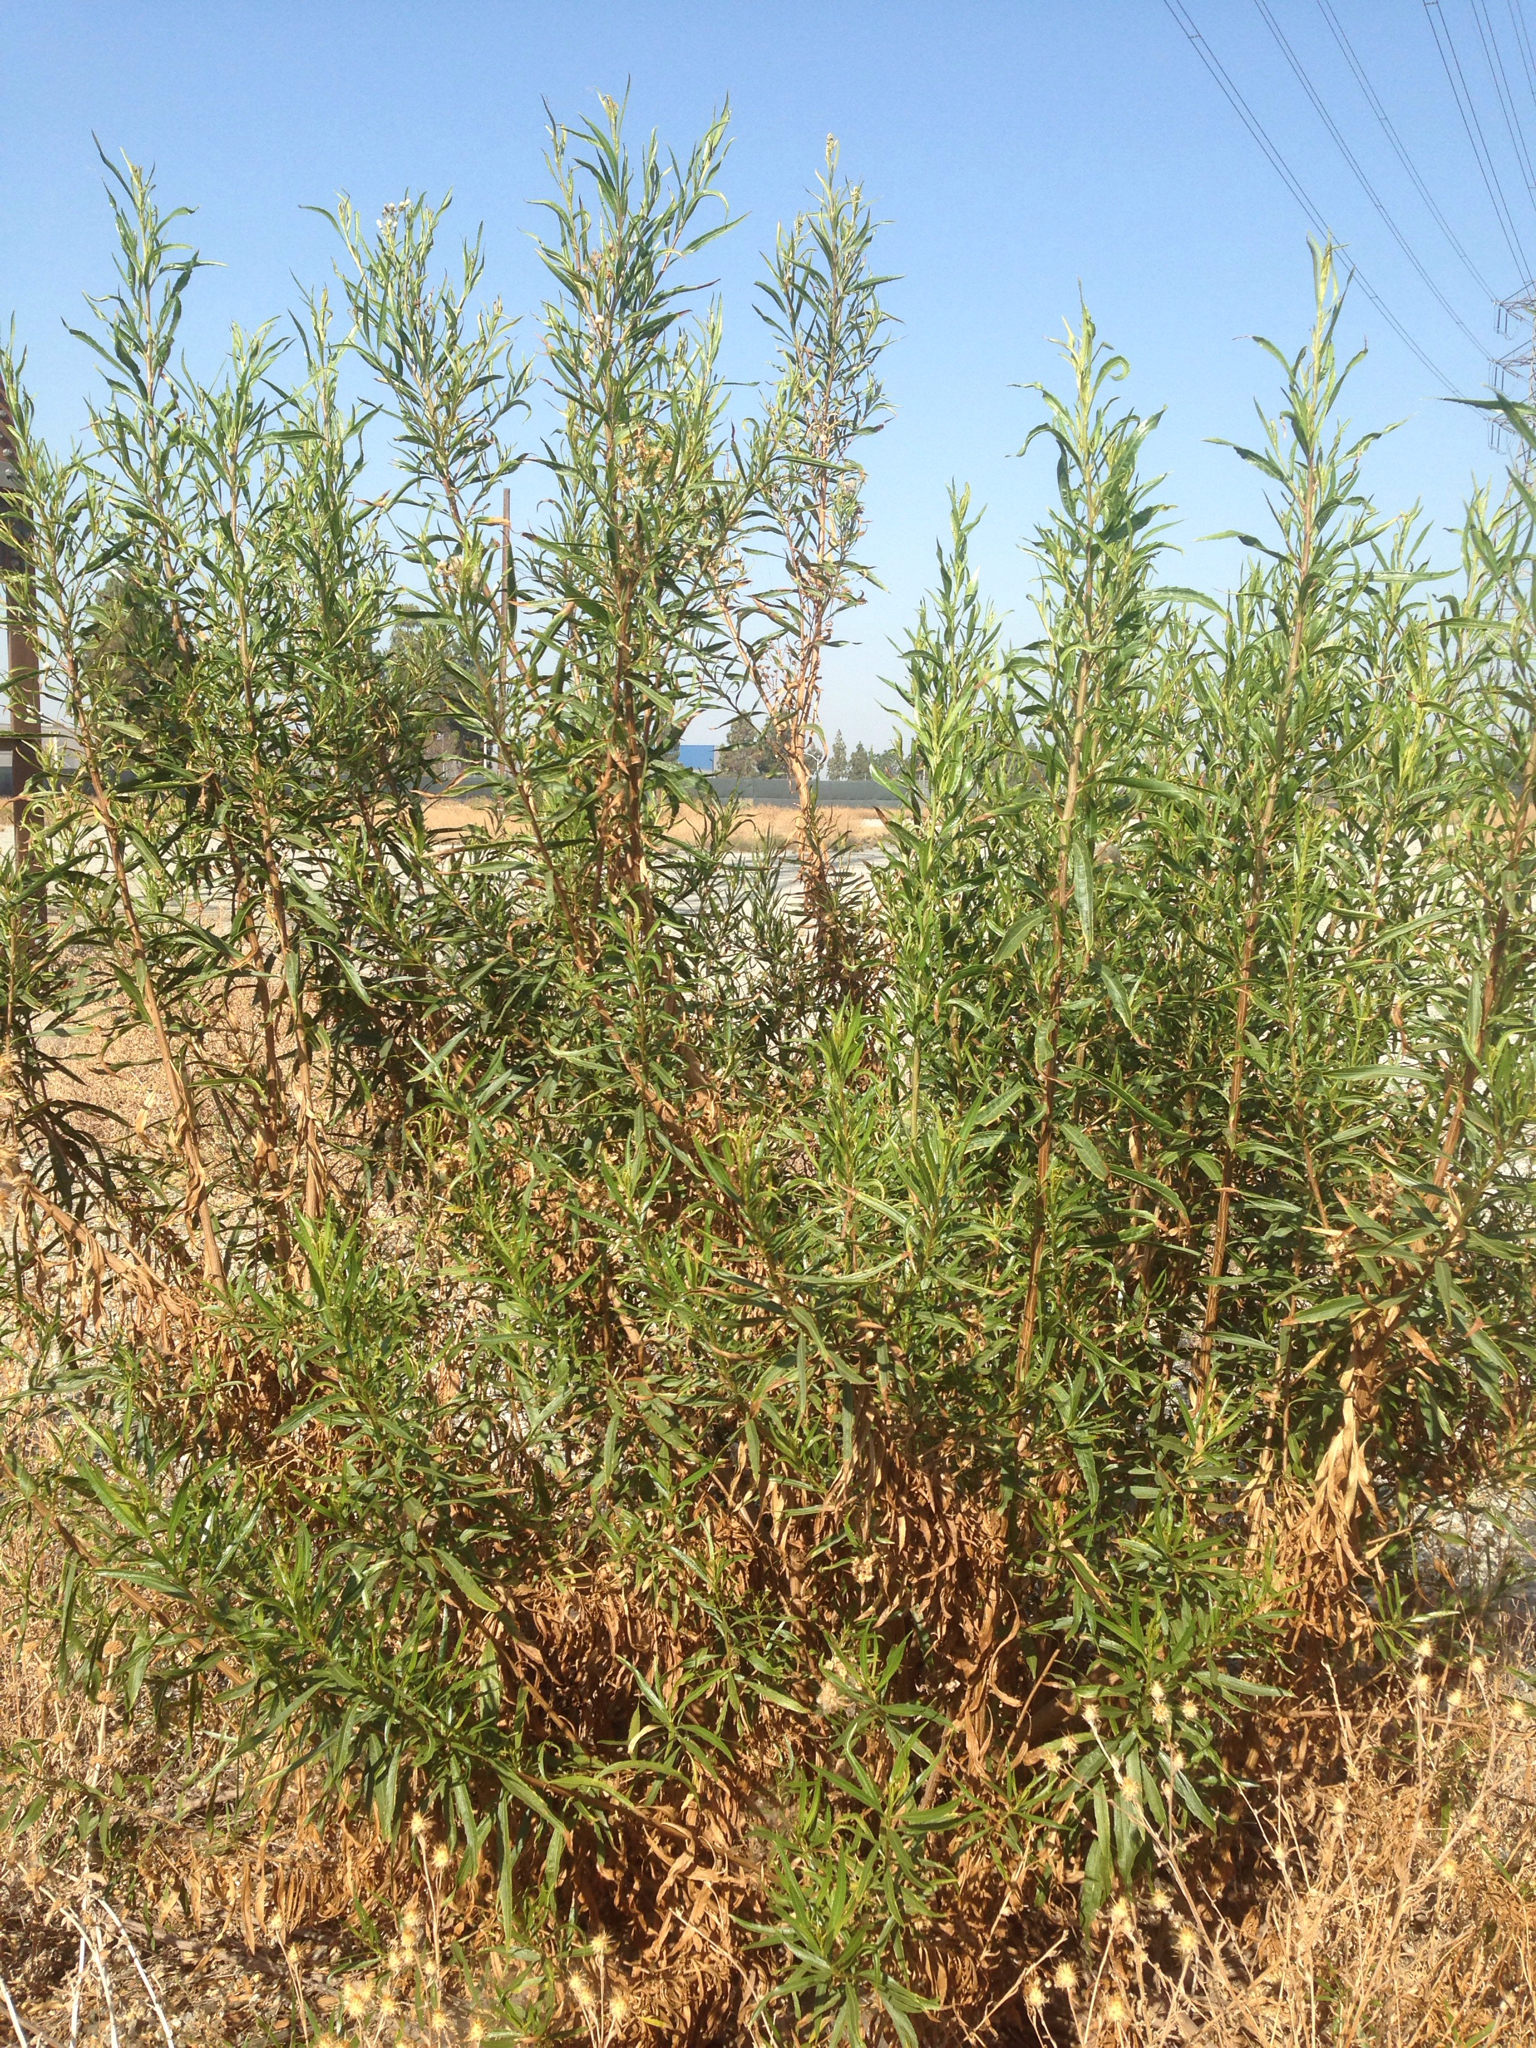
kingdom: Plantae
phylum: Tracheophyta
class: Magnoliopsida
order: Asterales
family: Asteraceae
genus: Baccharis
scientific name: Baccharis salicifolia
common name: Sticky baccharis
